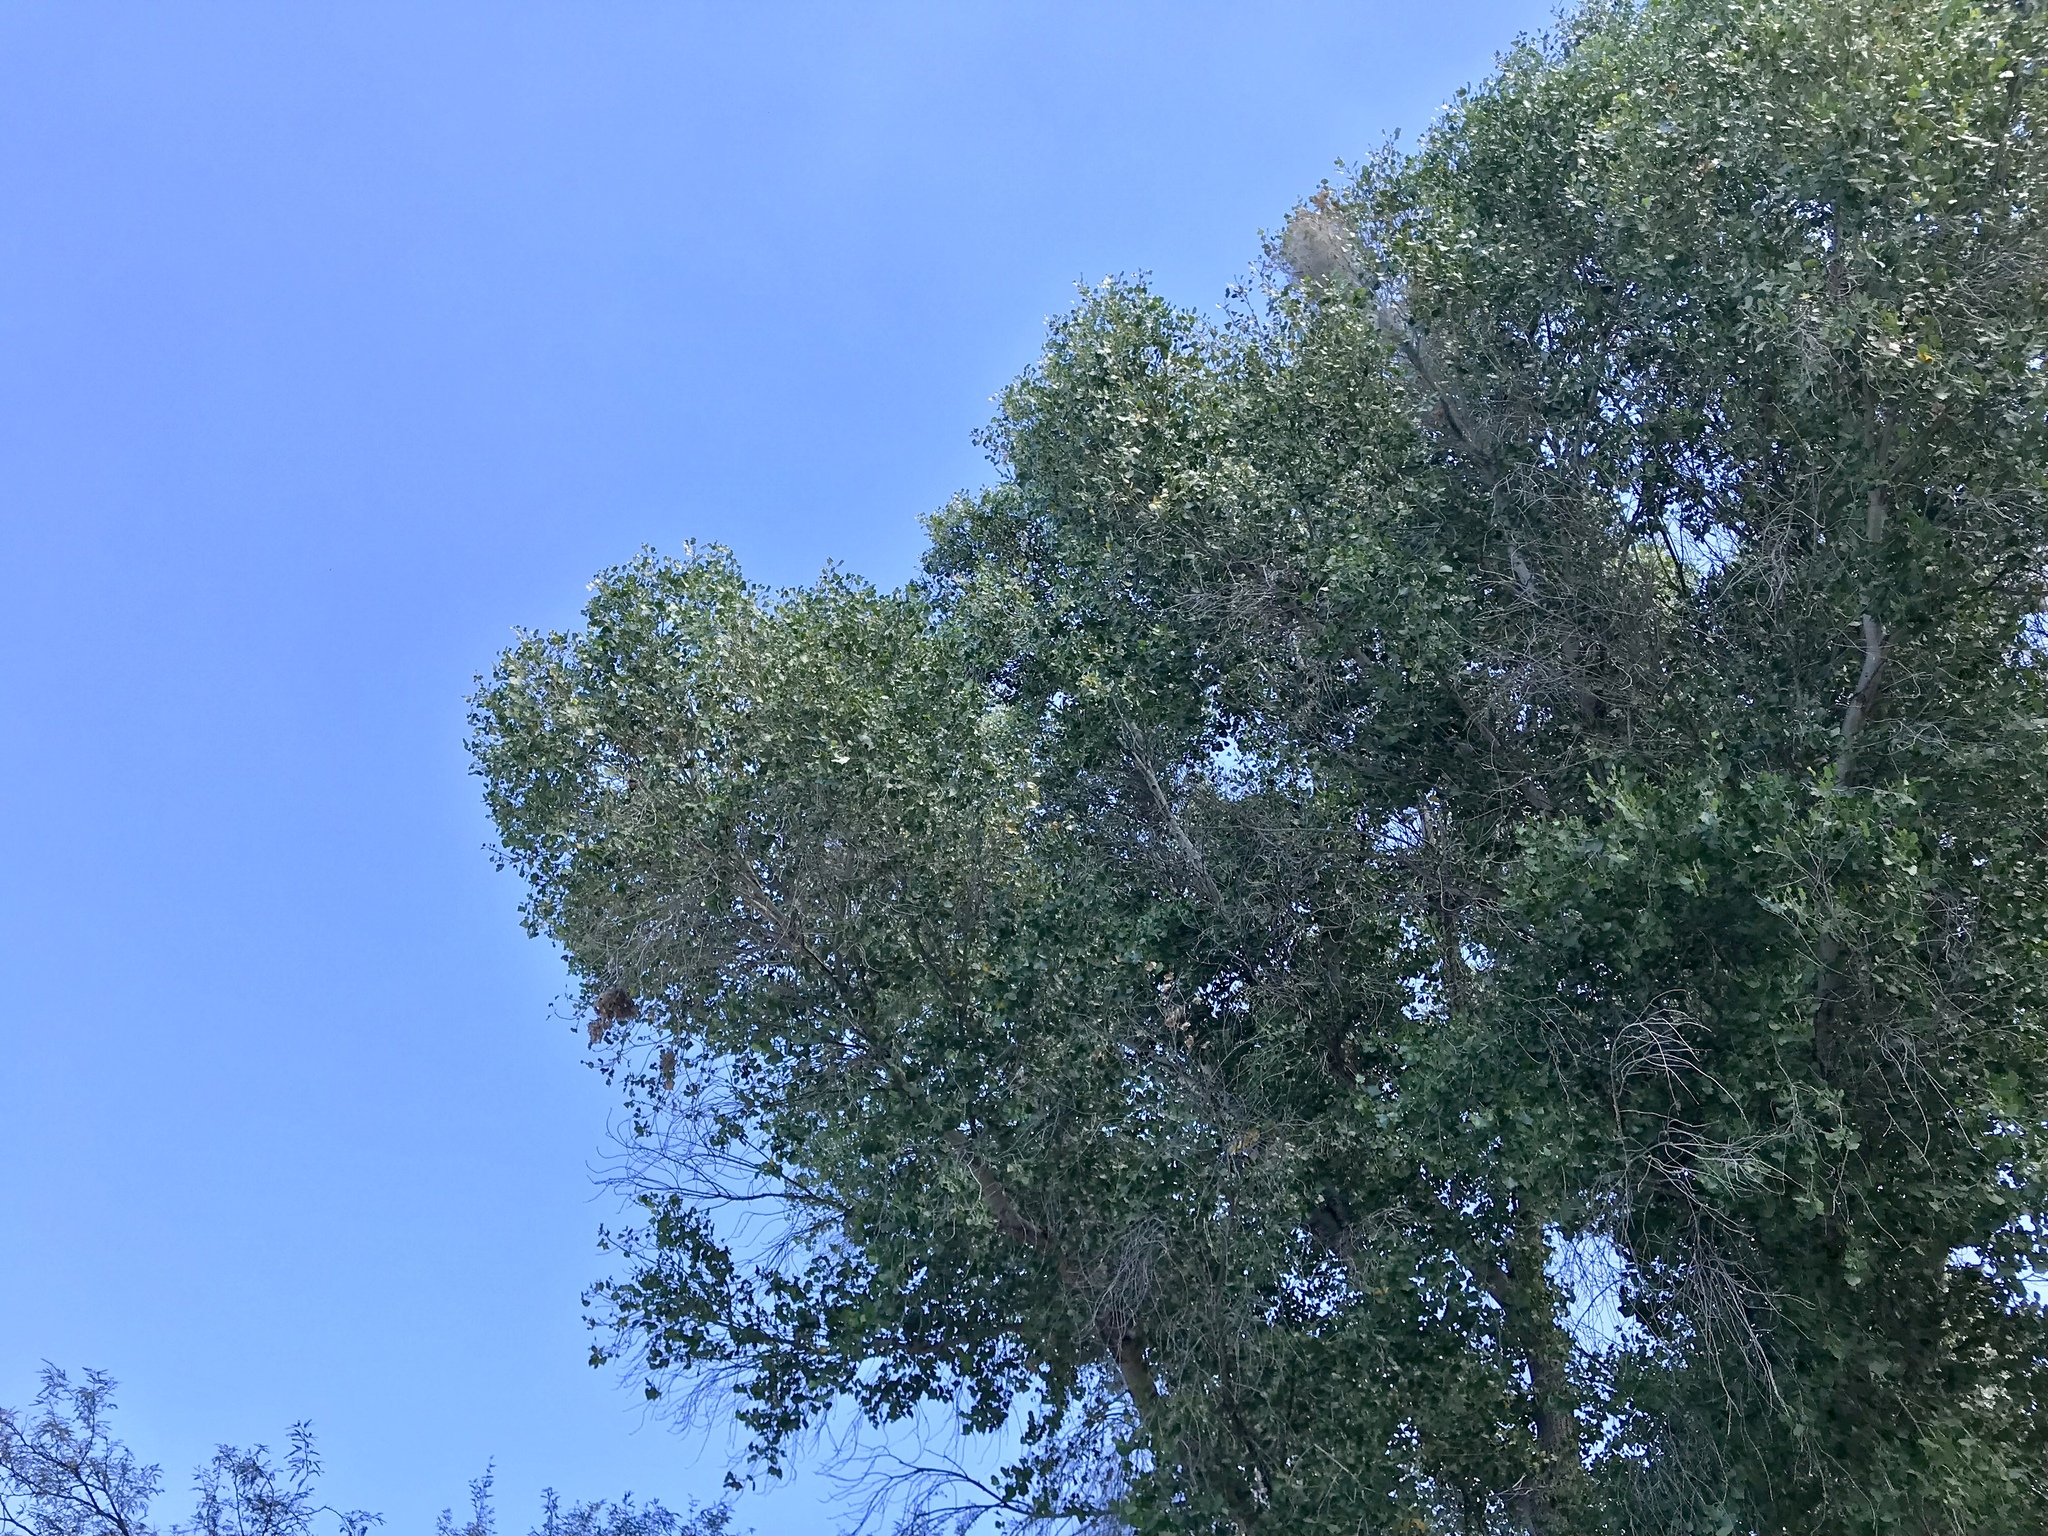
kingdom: Plantae
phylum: Tracheophyta
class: Magnoliopsida
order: Malpighiales
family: Salicaceae
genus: Populus
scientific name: Populus fremontii
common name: Fremont's cottonwood
